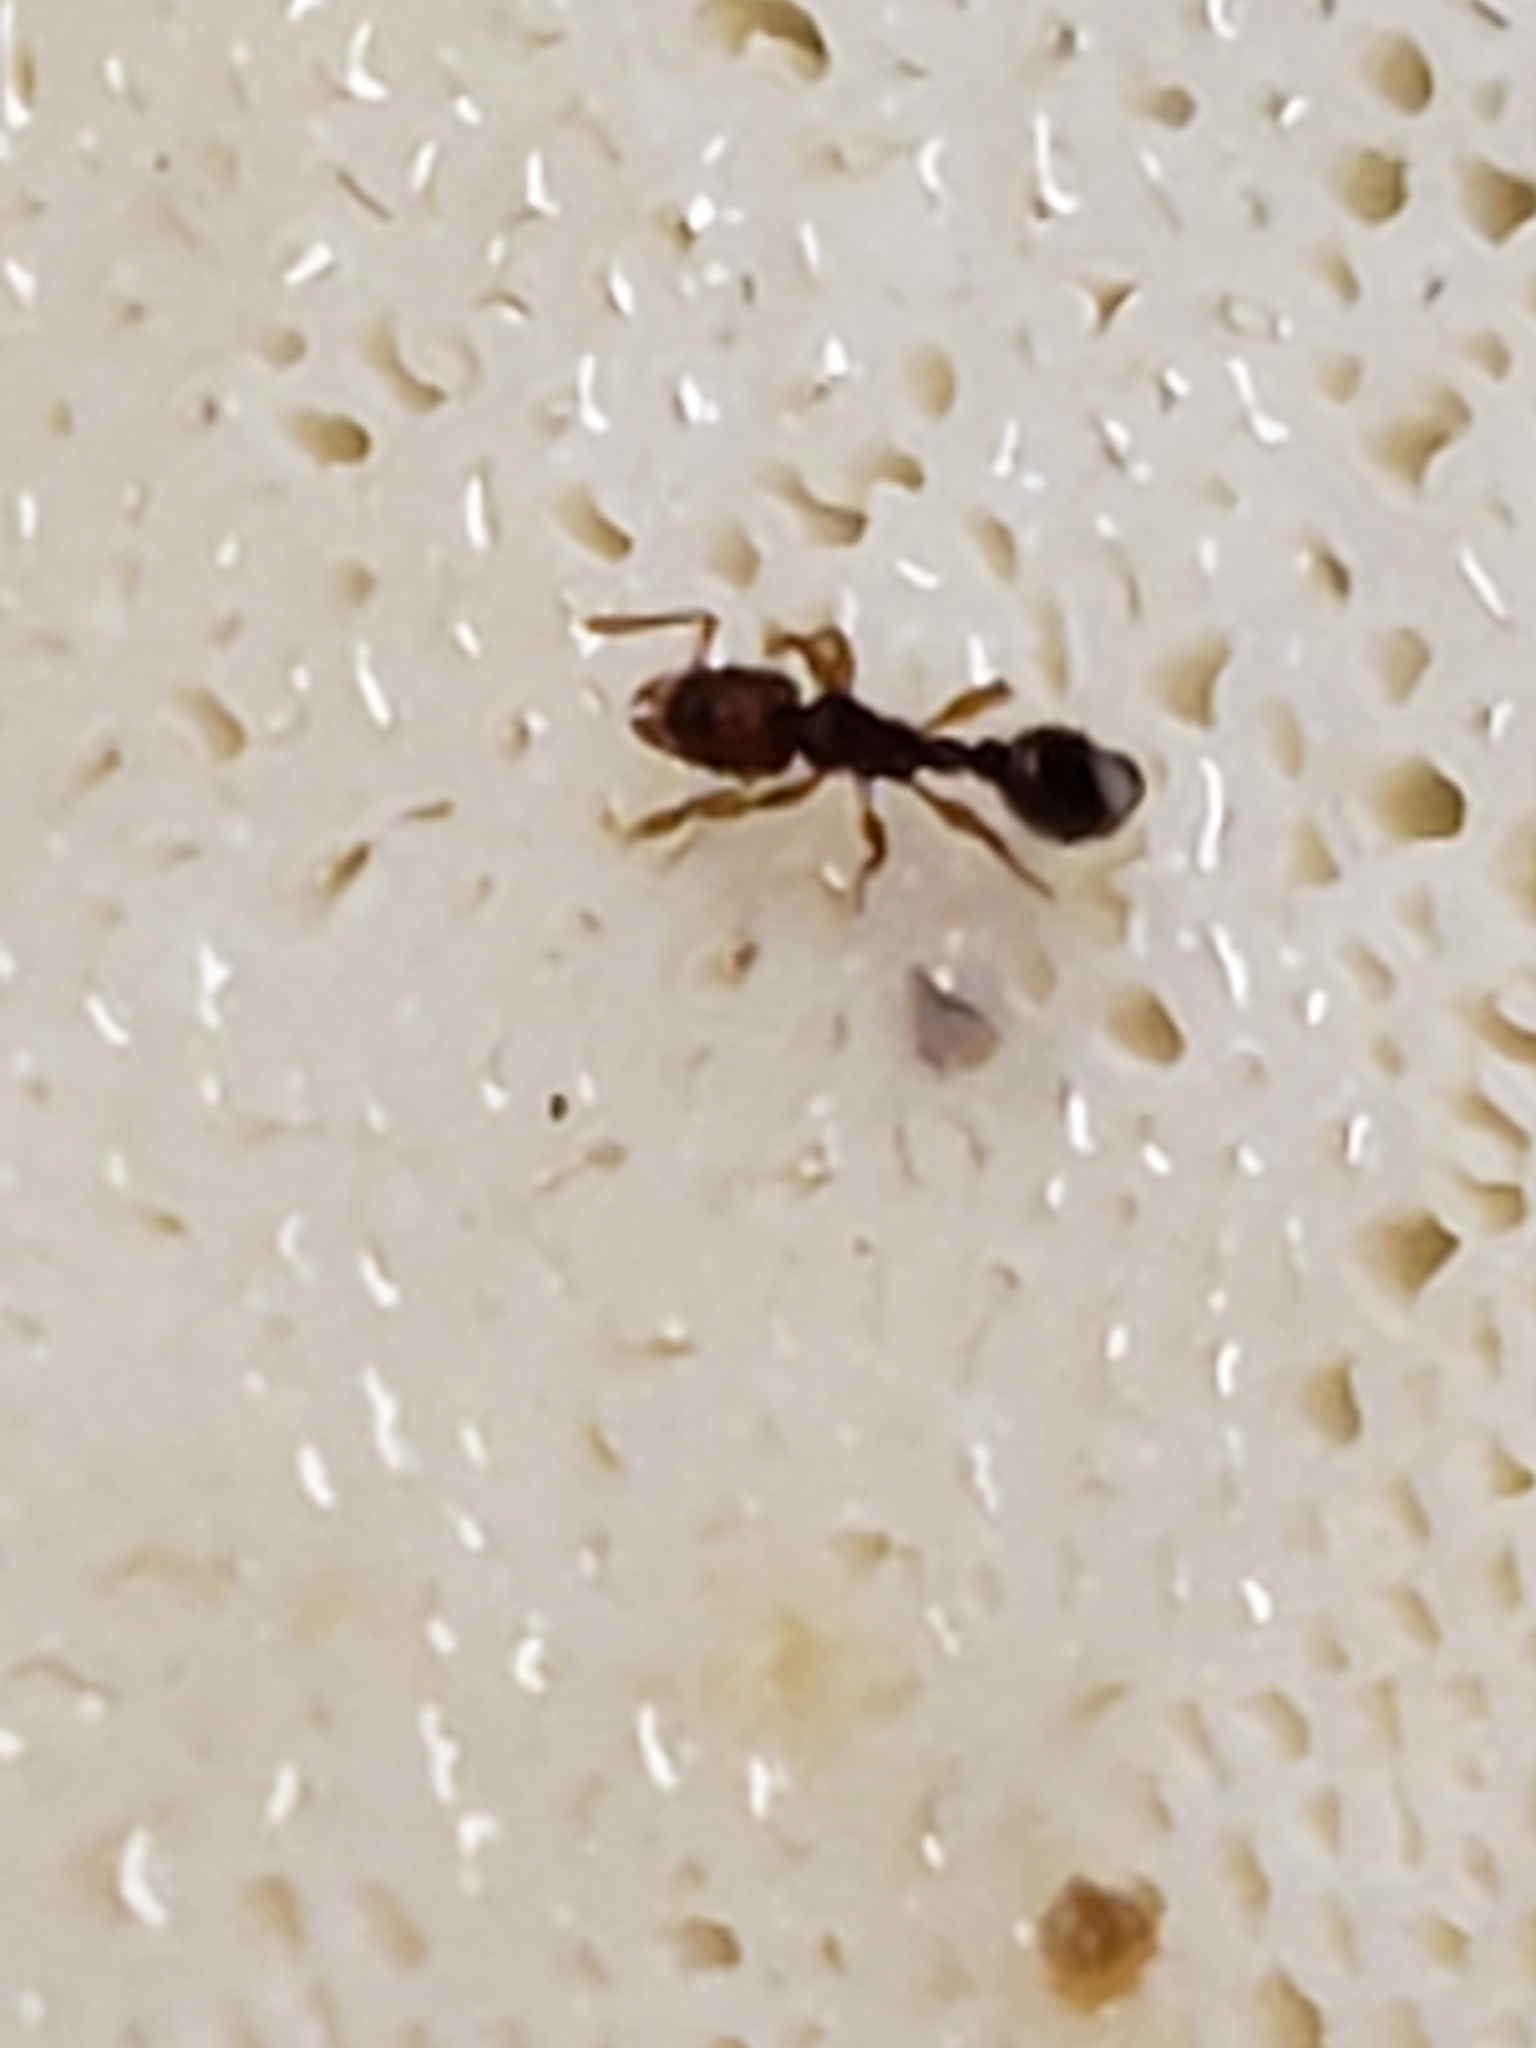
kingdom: Animalia
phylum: Arthropoda
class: Insecta
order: Hymenoptera
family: Formicidae
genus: Vollenhovia
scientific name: Vollenhovia emeryi
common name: Ant
